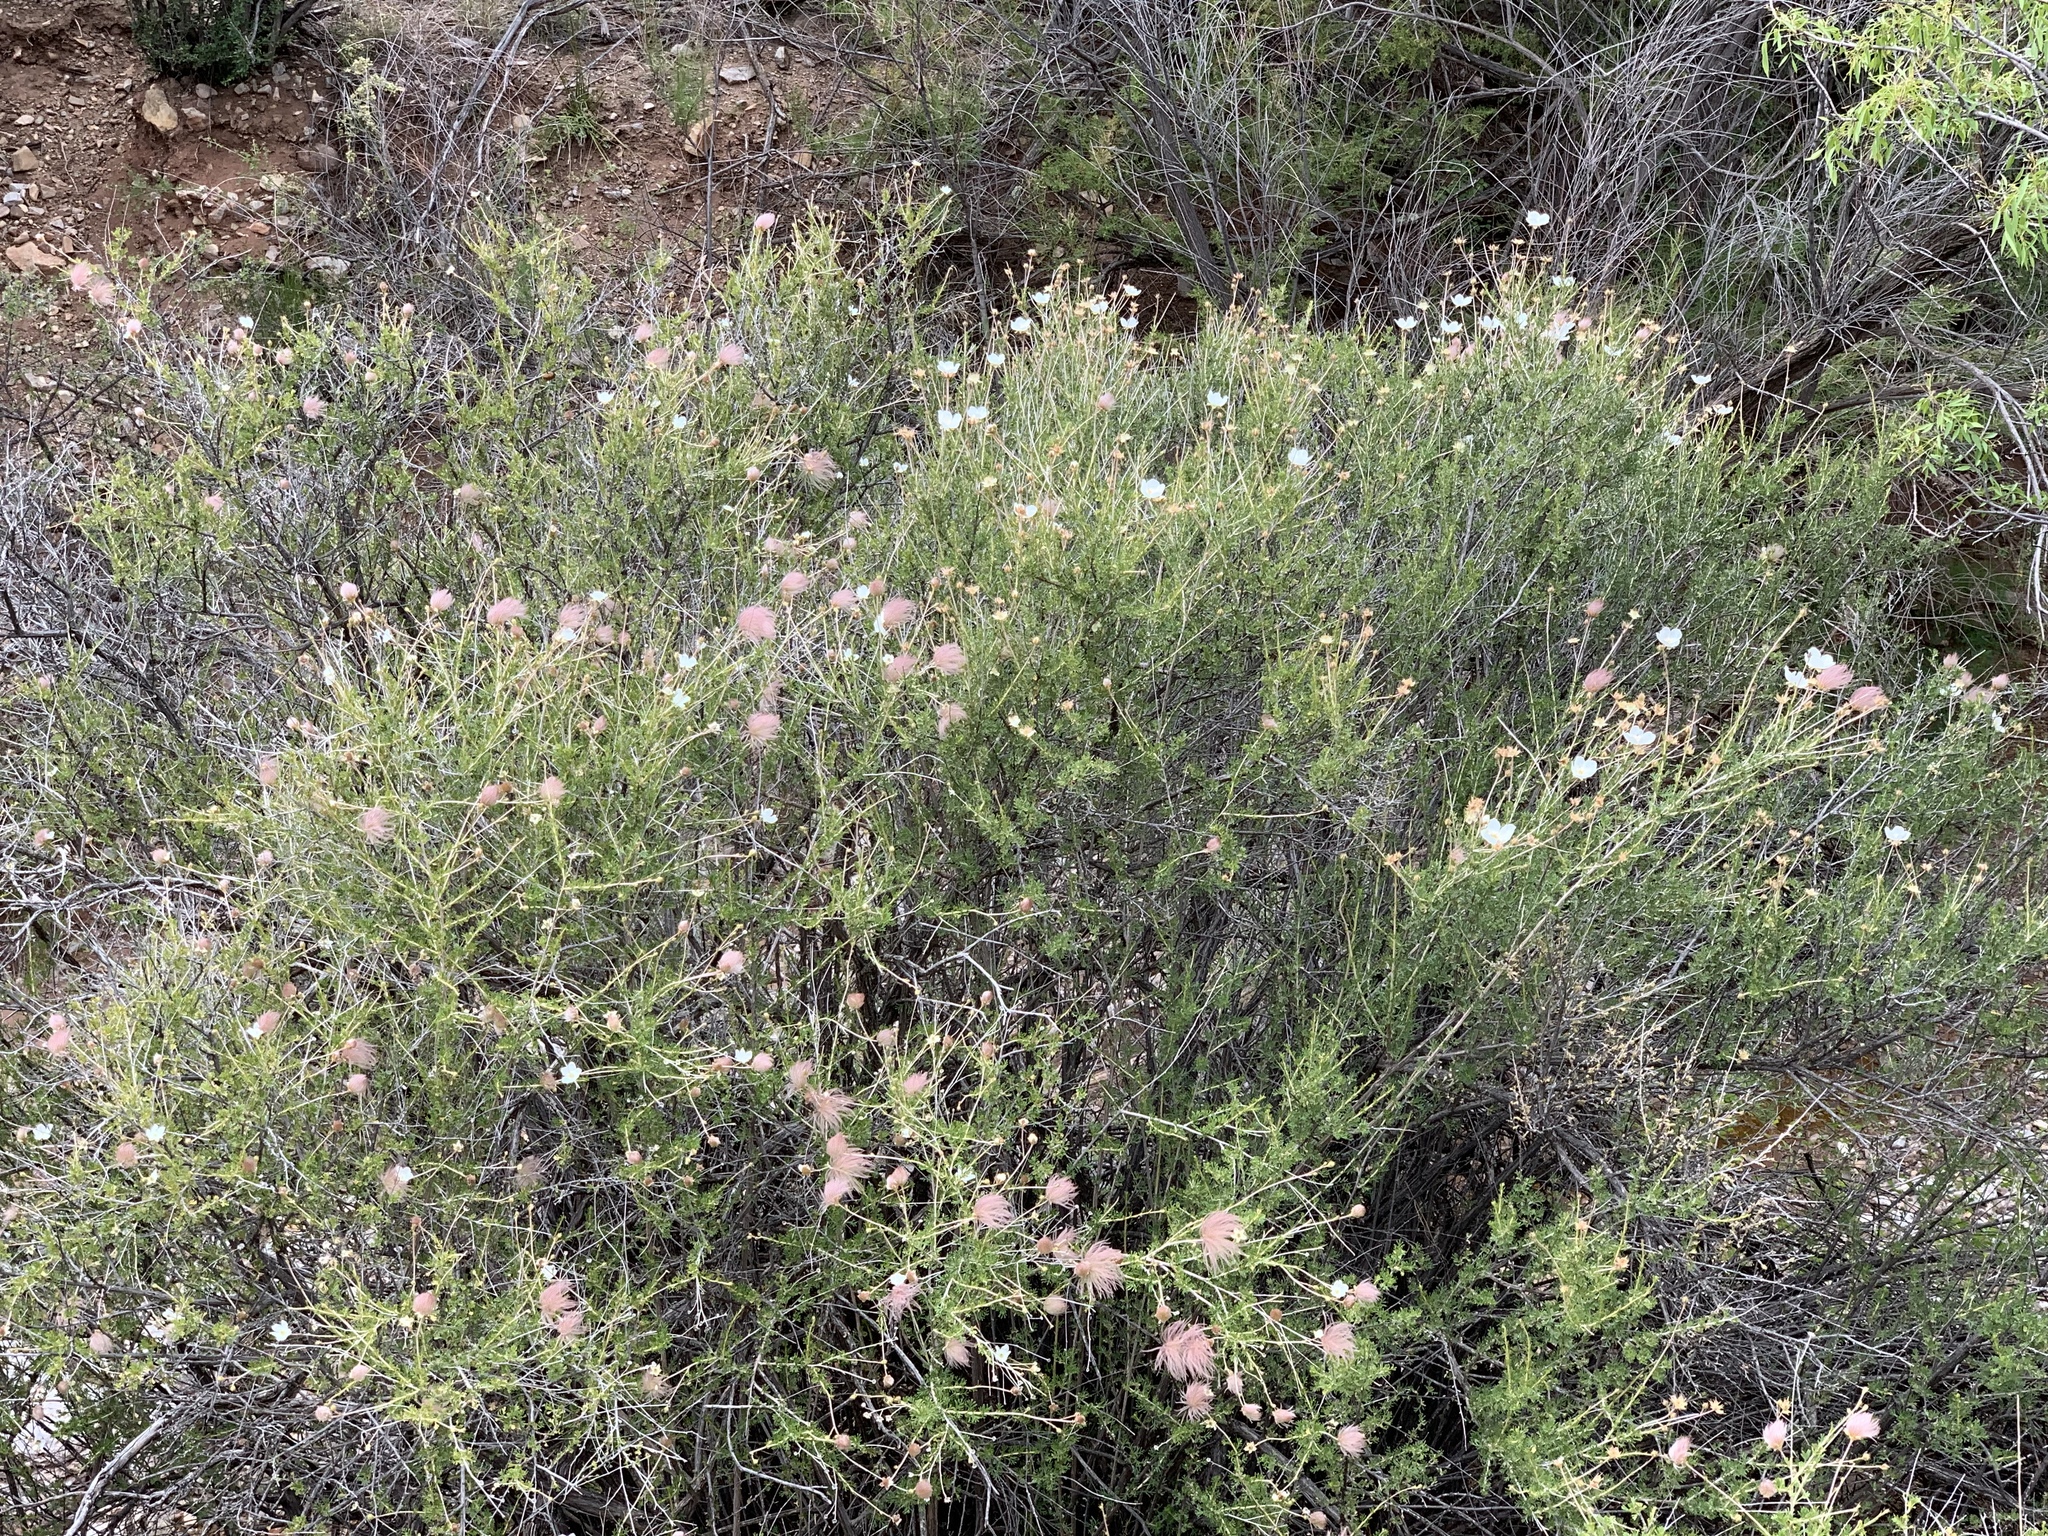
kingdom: Plantae
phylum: Tracheophyta
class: Magnoliopsida
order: Rosales
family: Rosaceae
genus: Fallugia
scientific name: Fallugia paradoxa
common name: Apache-plume
